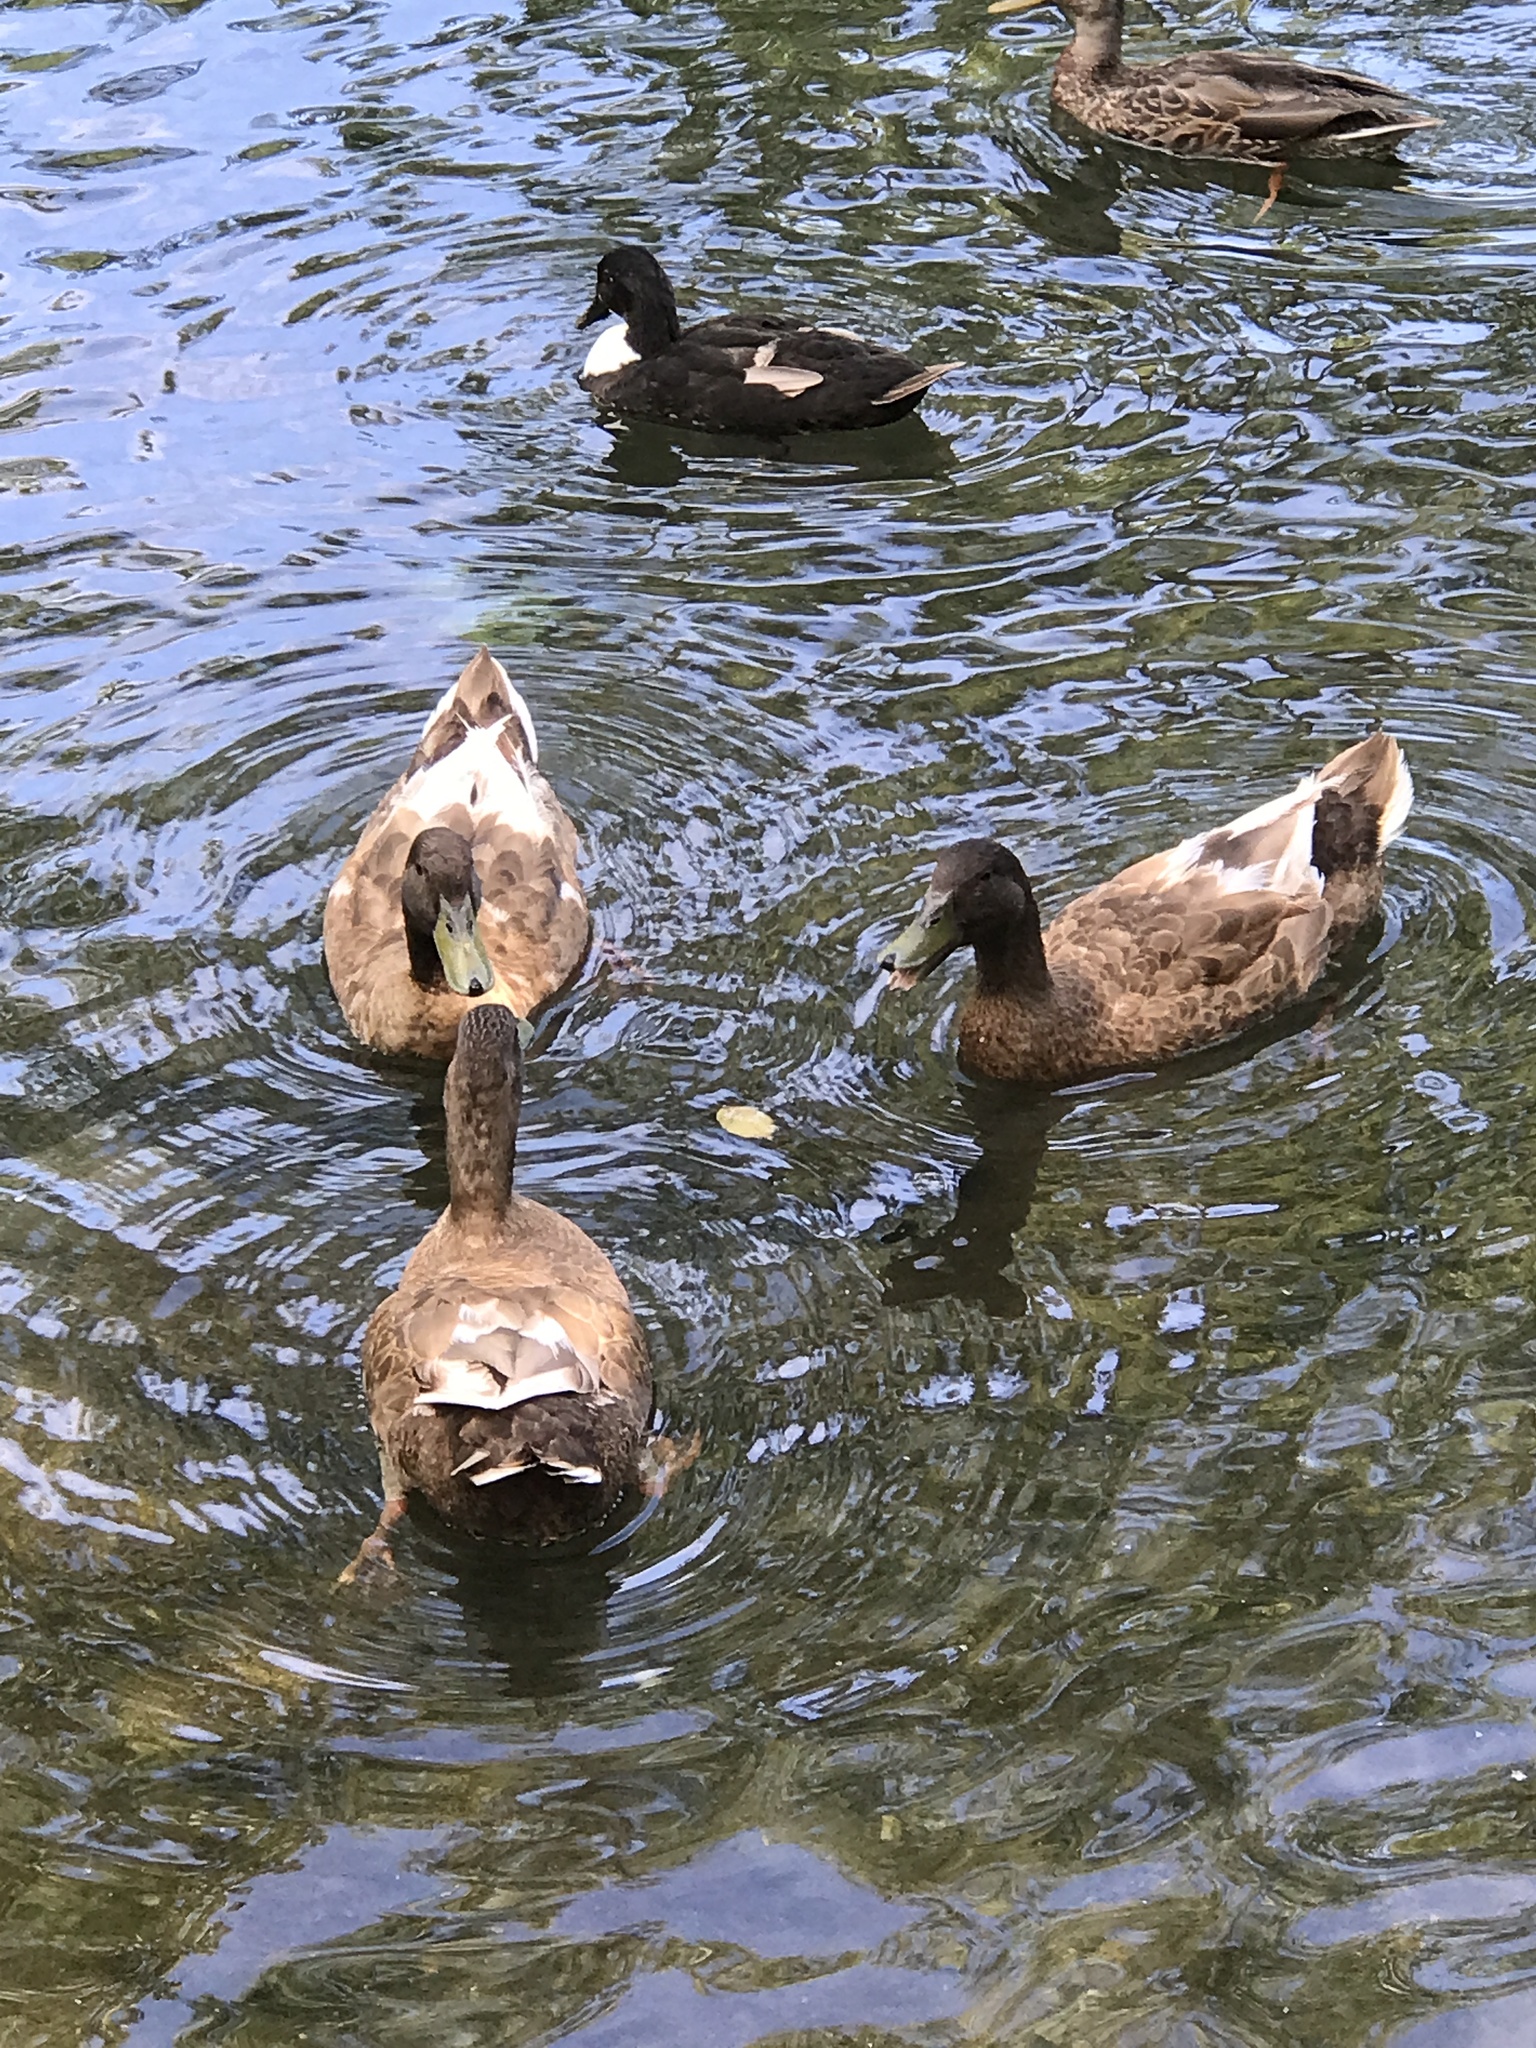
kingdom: Animalia
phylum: Chordata
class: Aves
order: Anseriformes
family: Anatidae
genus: Anas
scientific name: Anas platyrhynchos
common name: Mallard
